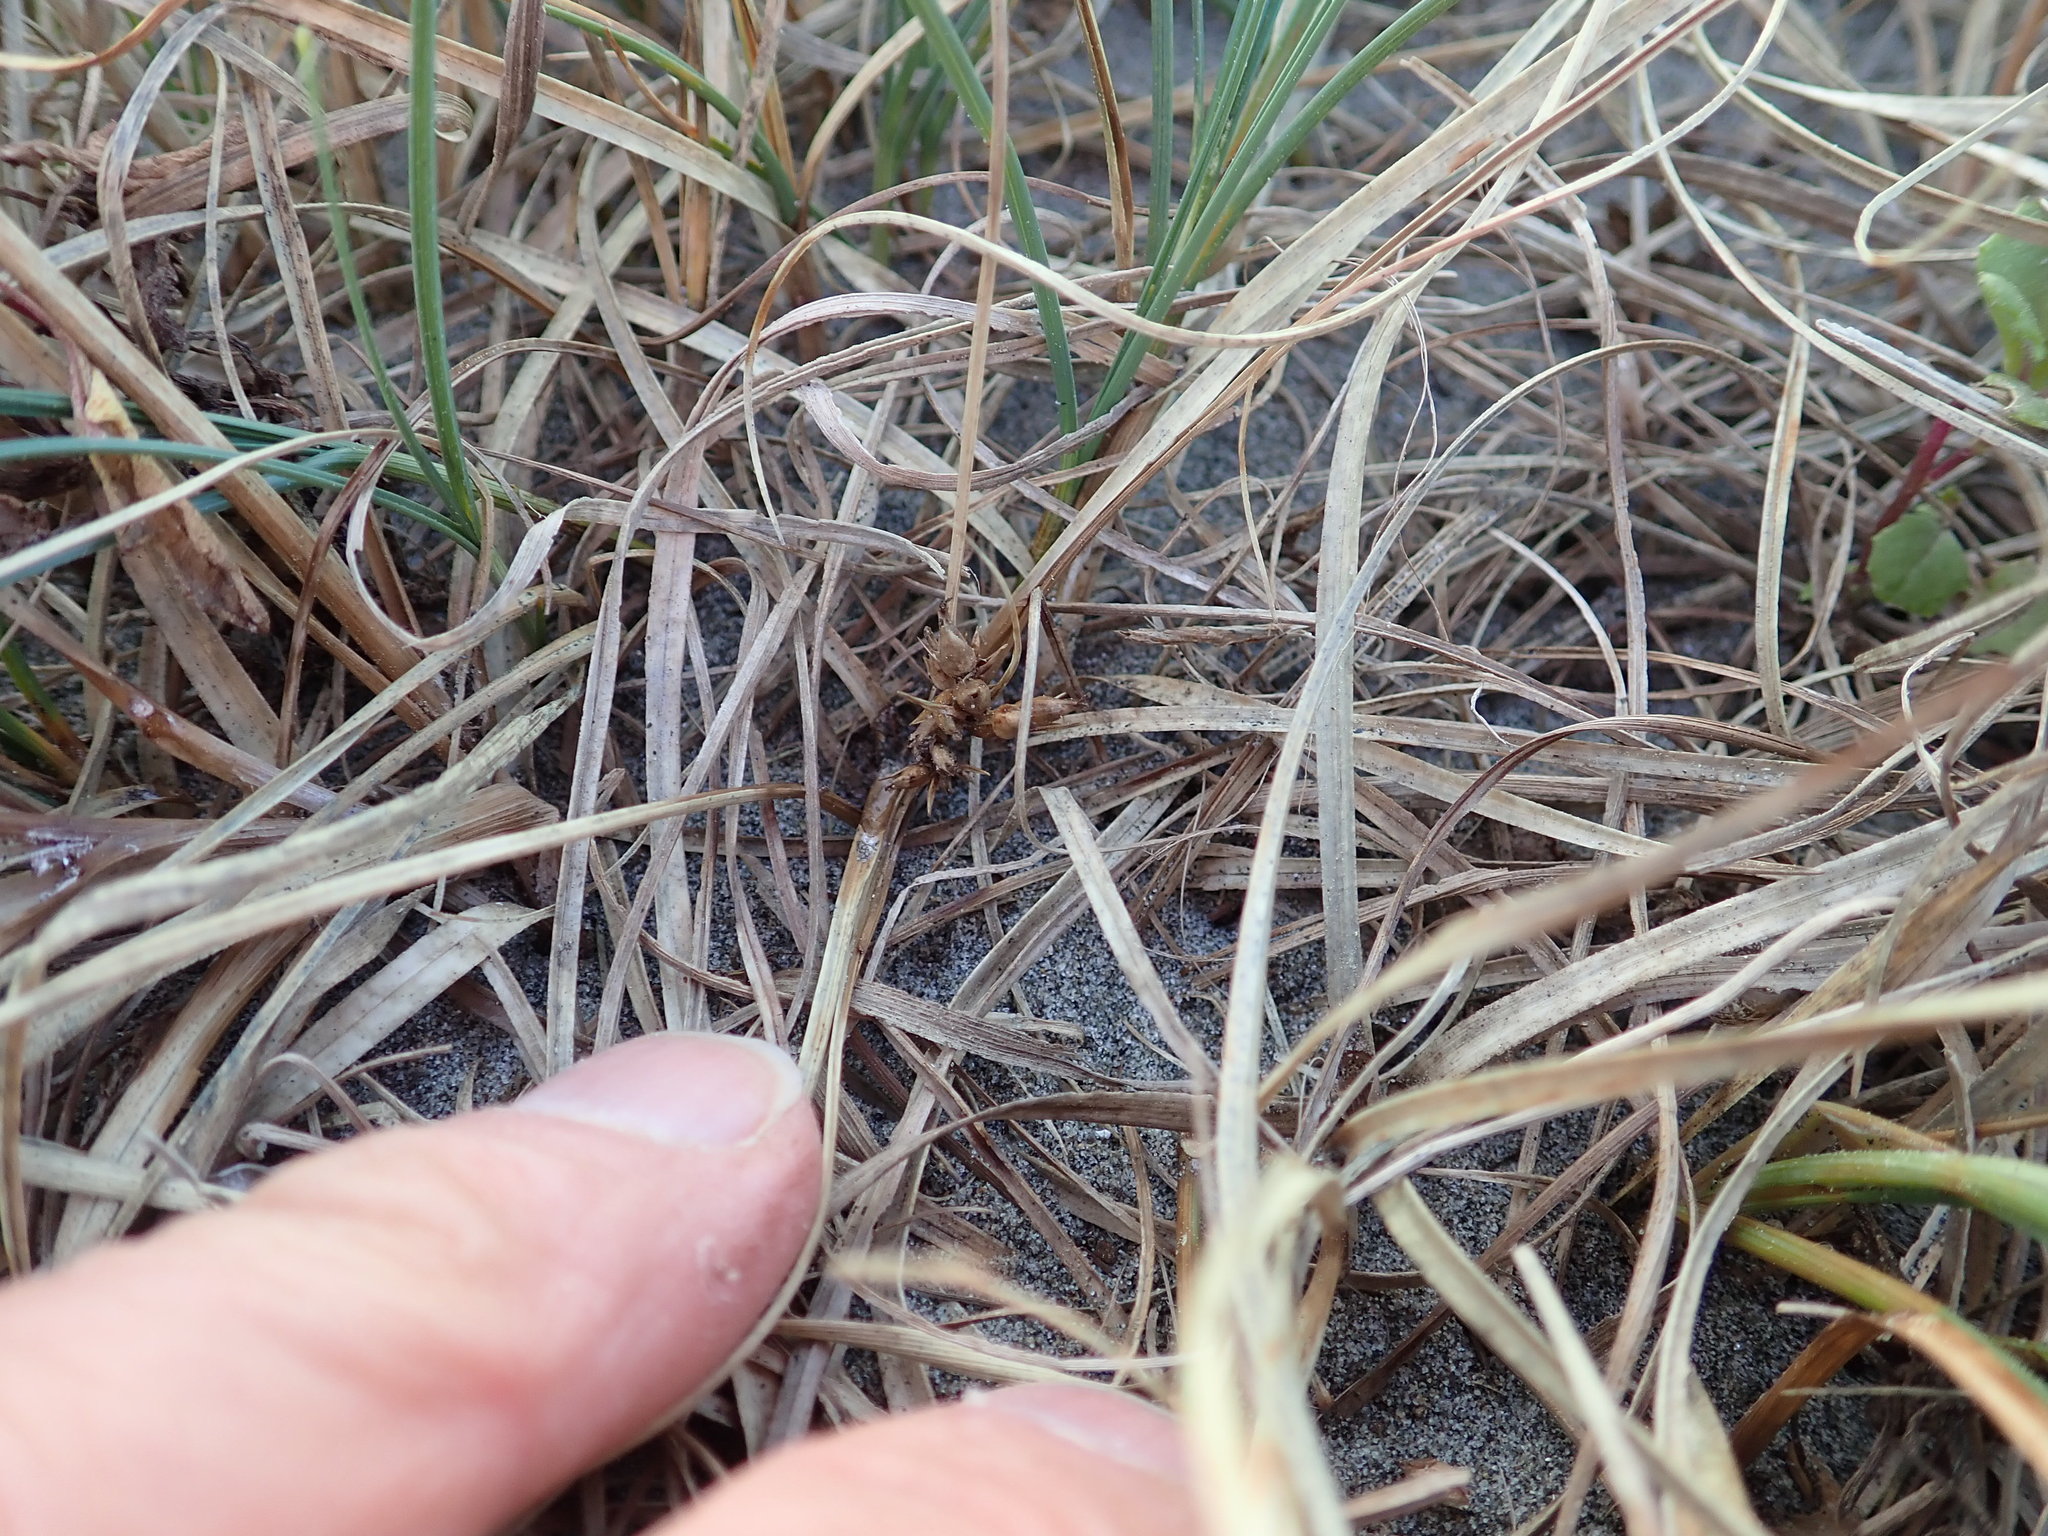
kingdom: Plantae
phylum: Tracheophyta
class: Liliopsida
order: Poales
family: Cyperaceae
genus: Carex
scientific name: Carex pumila
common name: Dwarf sedge
